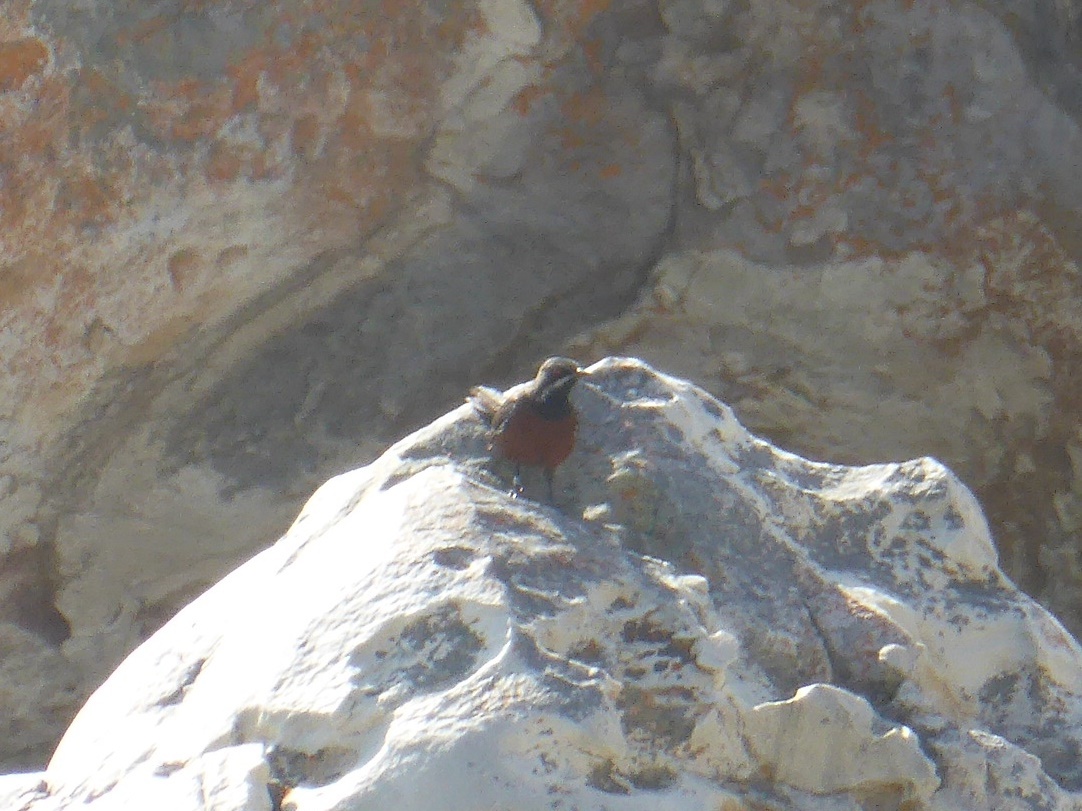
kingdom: Animalia
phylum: Chordata
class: Aves
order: Passeriformes
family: Chaetopidae
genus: Chaetops
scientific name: Chaetops frenatus
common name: Cape rockjumper
